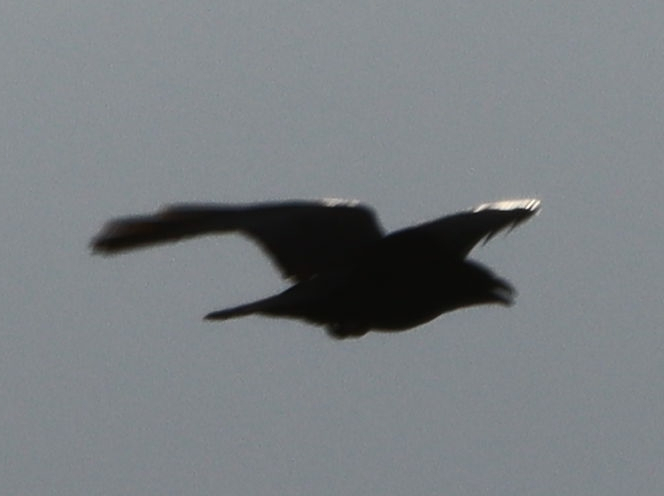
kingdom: Animalia
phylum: Chordata
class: Aves
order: Passeriformes
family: Corvidae
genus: Corvus
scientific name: Corvus corax
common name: Common raven
